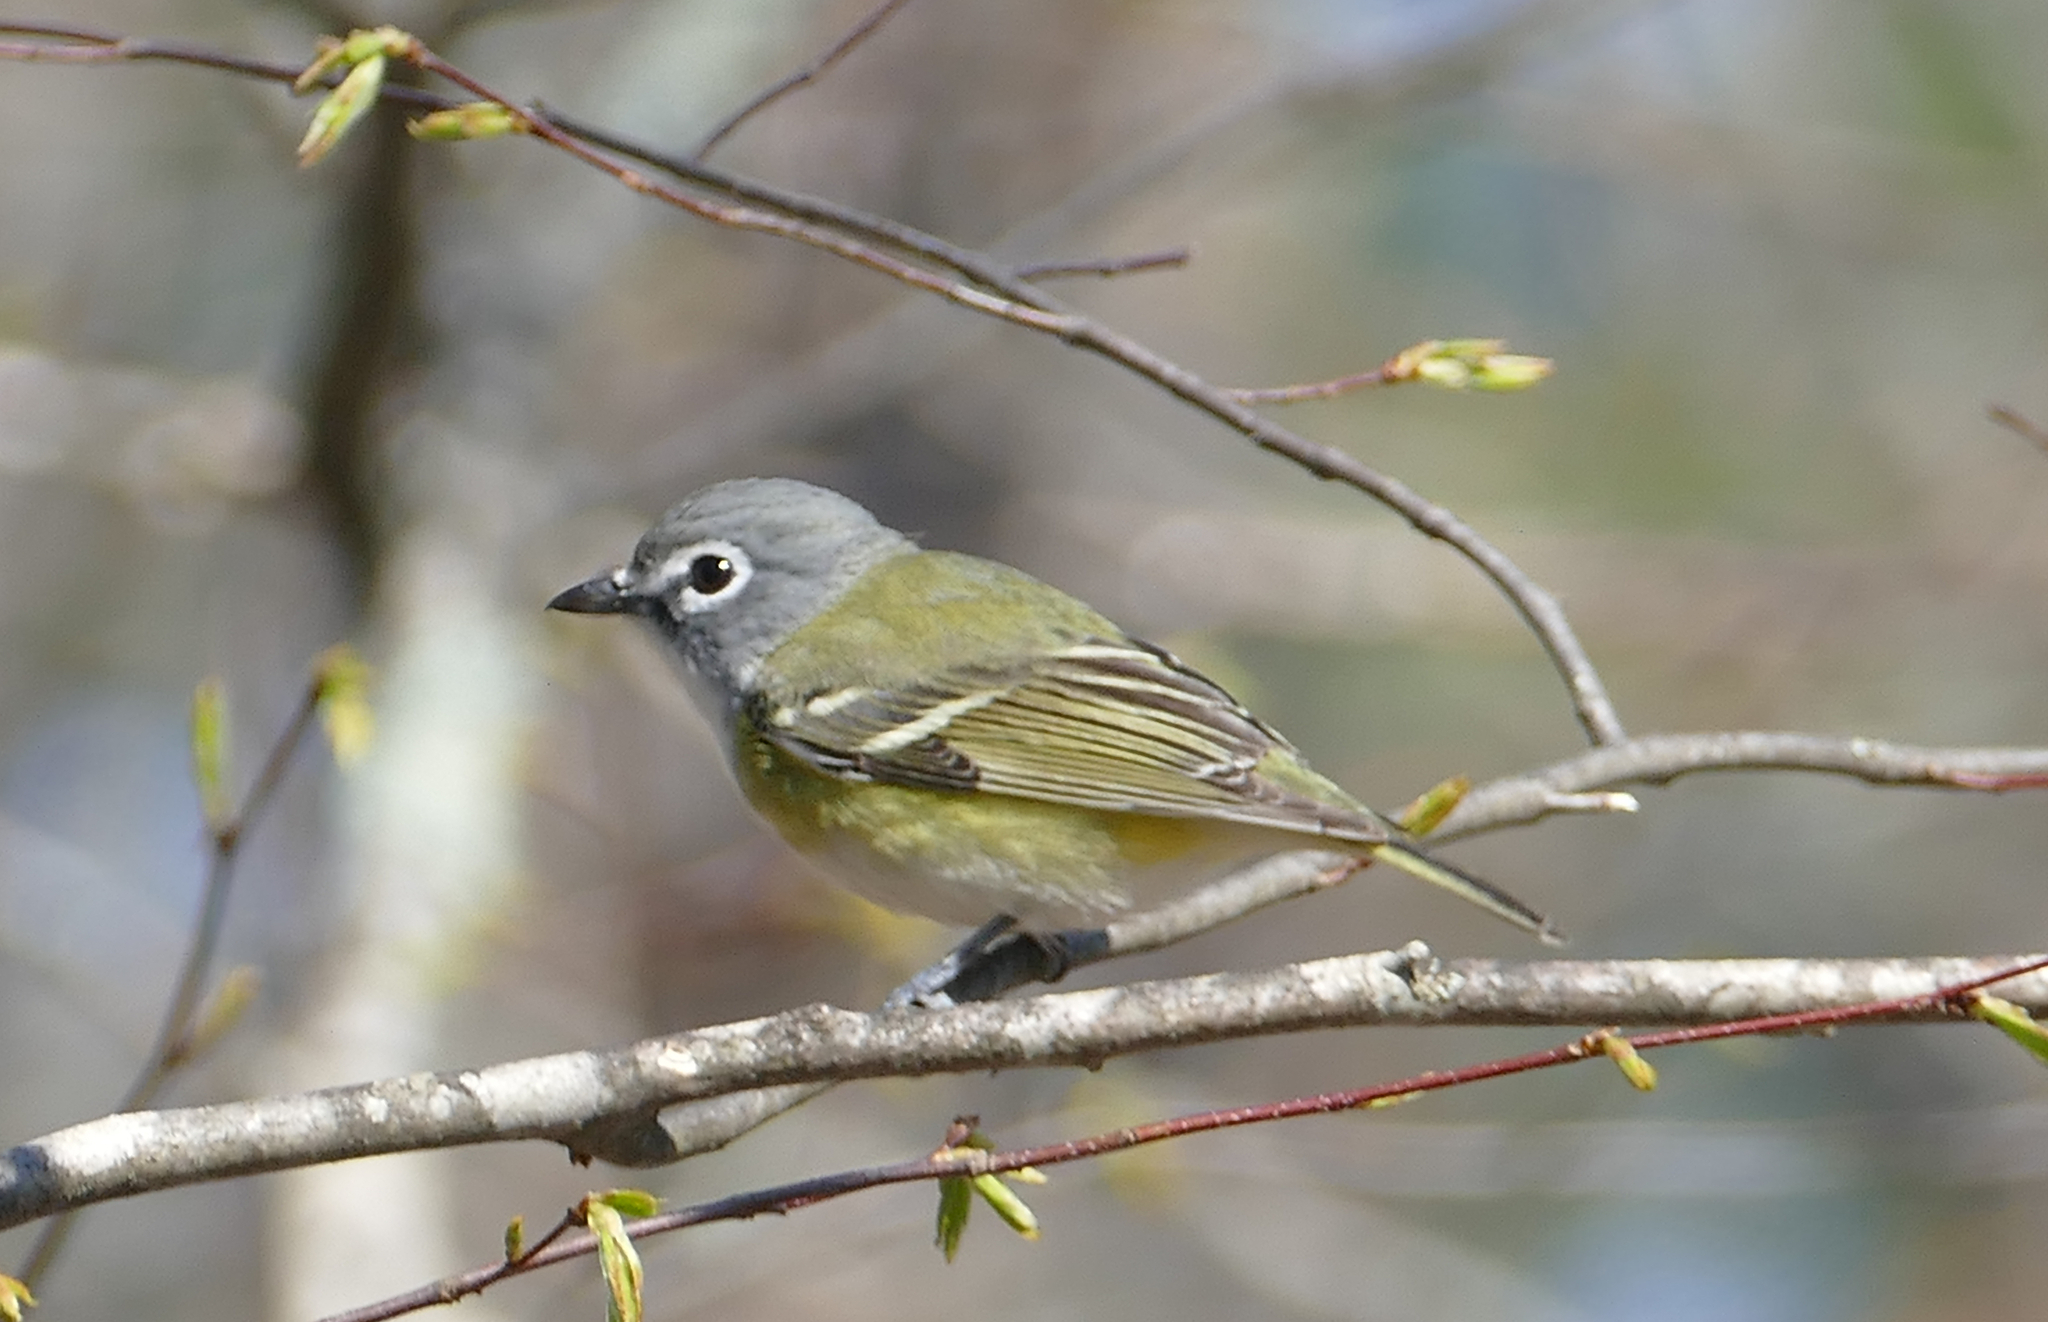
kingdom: Animalia
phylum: Chordata
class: Aves
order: Passeriformes
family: Vireonidae
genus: Vireo
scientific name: Vireo solitarius
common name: Blue-headed vireo
